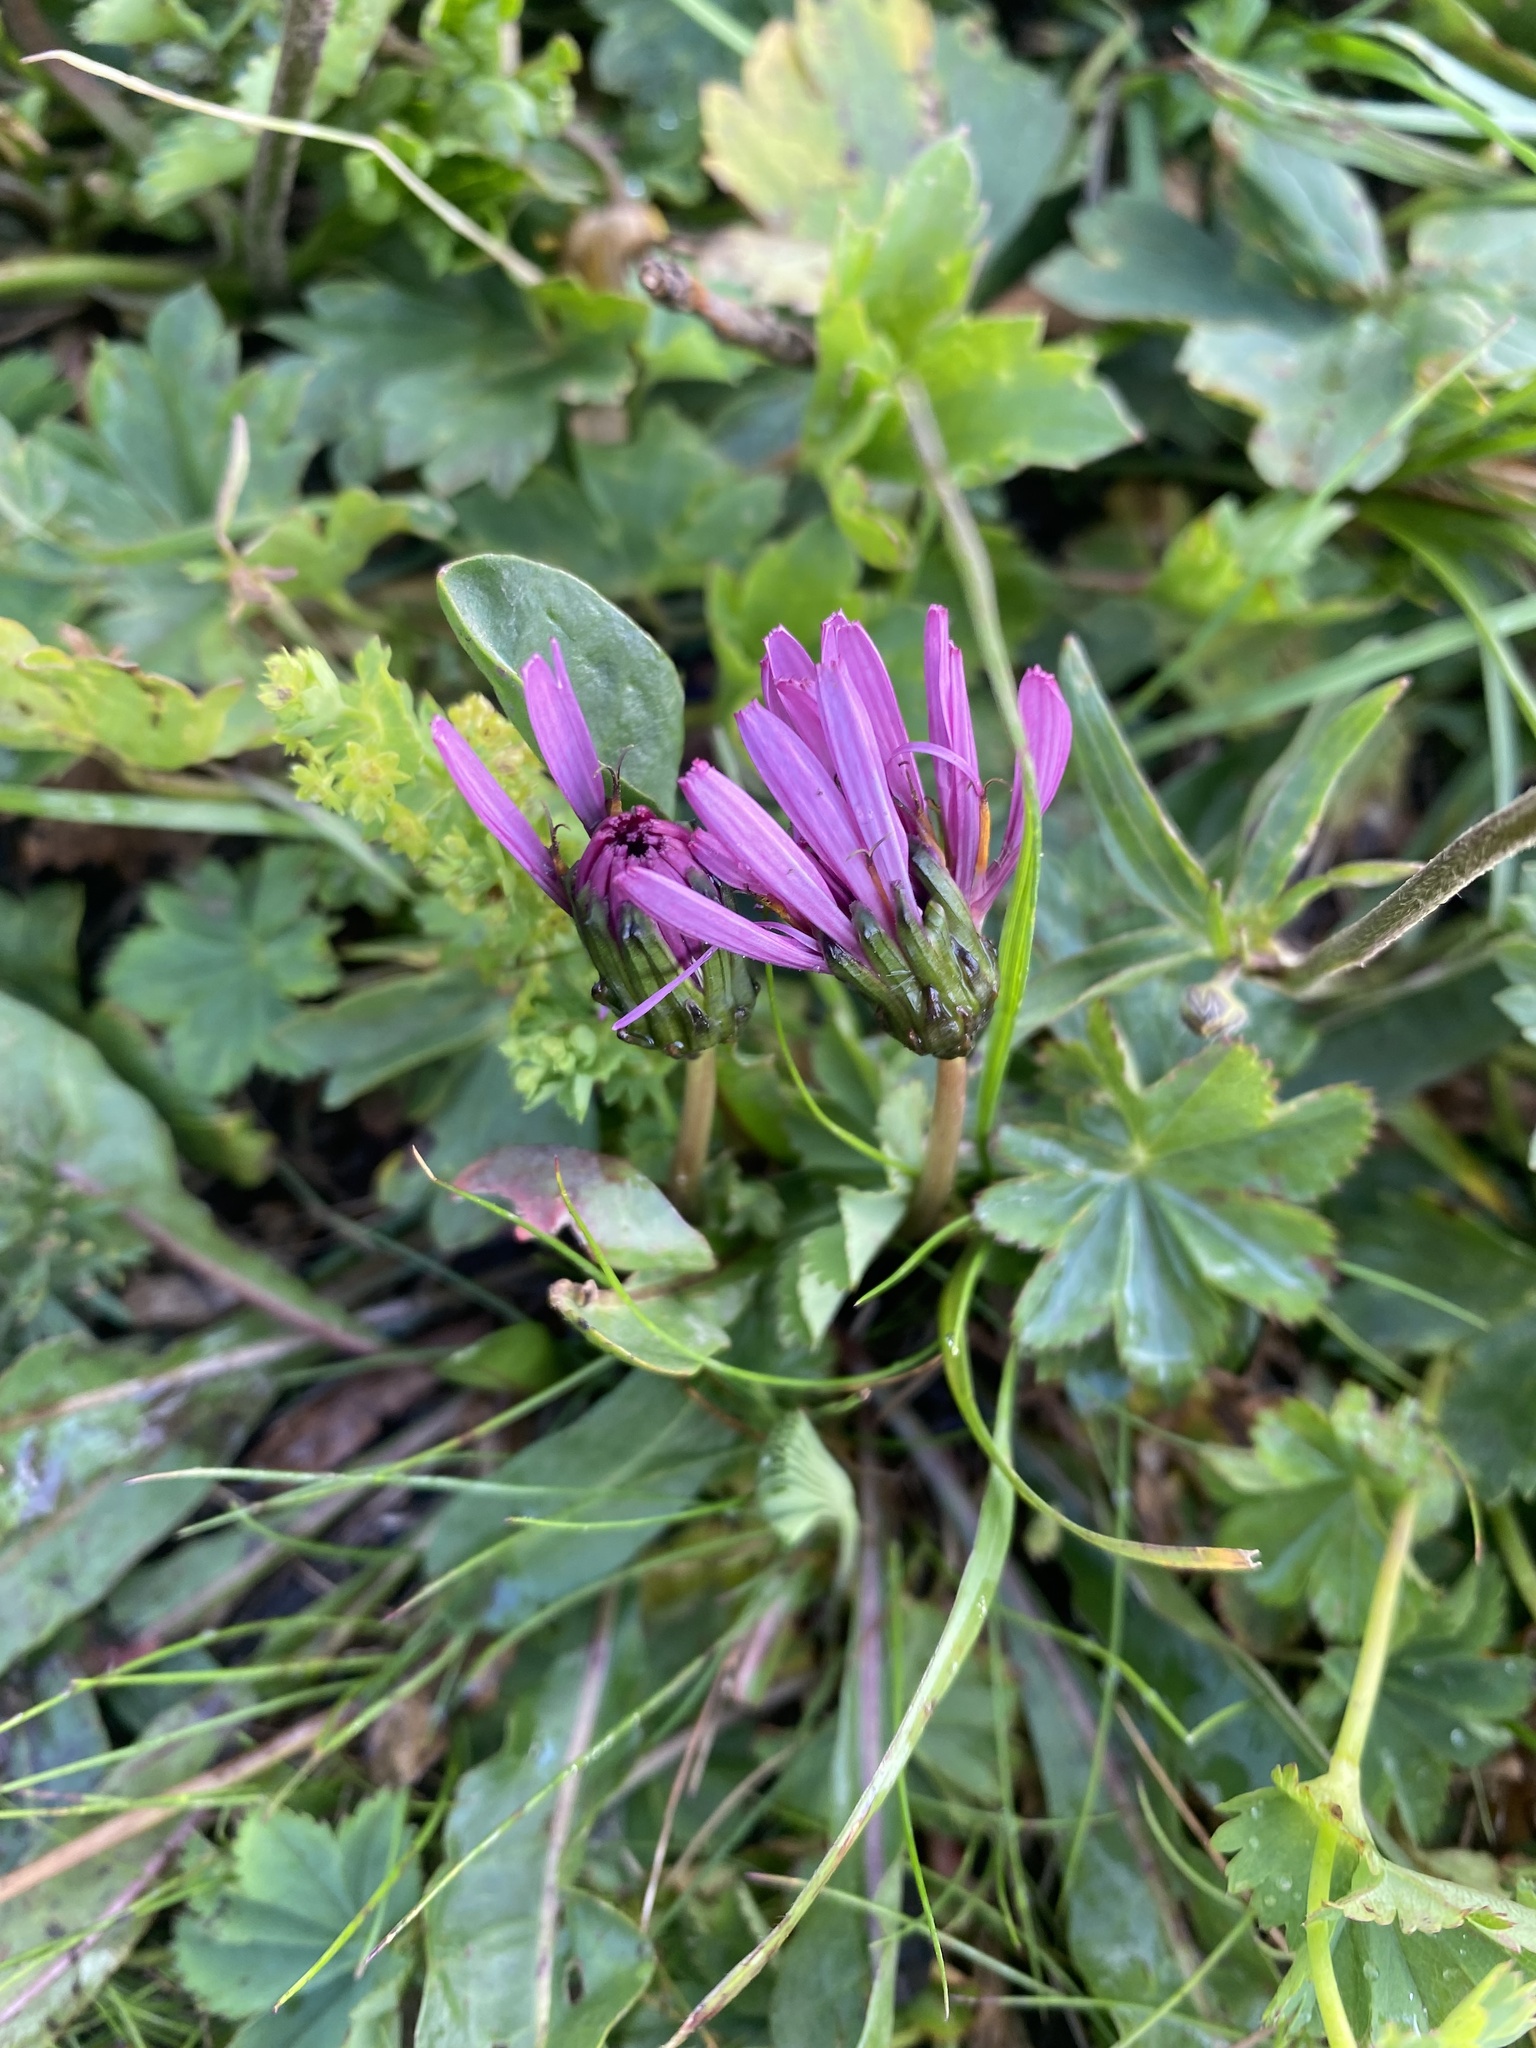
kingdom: Plantae
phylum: Tracheophyta
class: Magnoliopsida
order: Asterales
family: Asteraceae
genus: Taraxacum
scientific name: Taraxacum porphyranthum
